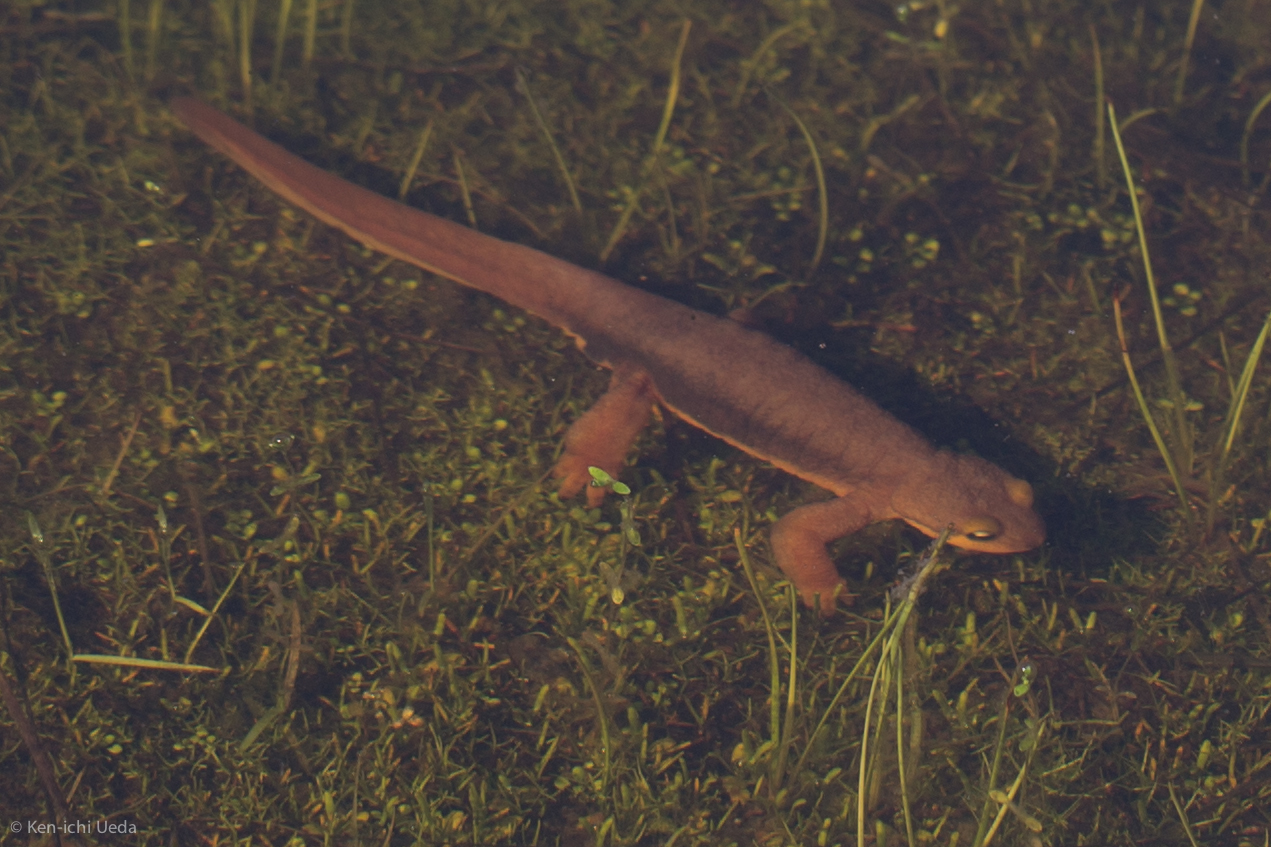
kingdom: Animalia
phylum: Chordata
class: Amphibia
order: Caudata
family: Salamandridae
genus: Taricha
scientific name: Taricha torosa
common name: California newt
